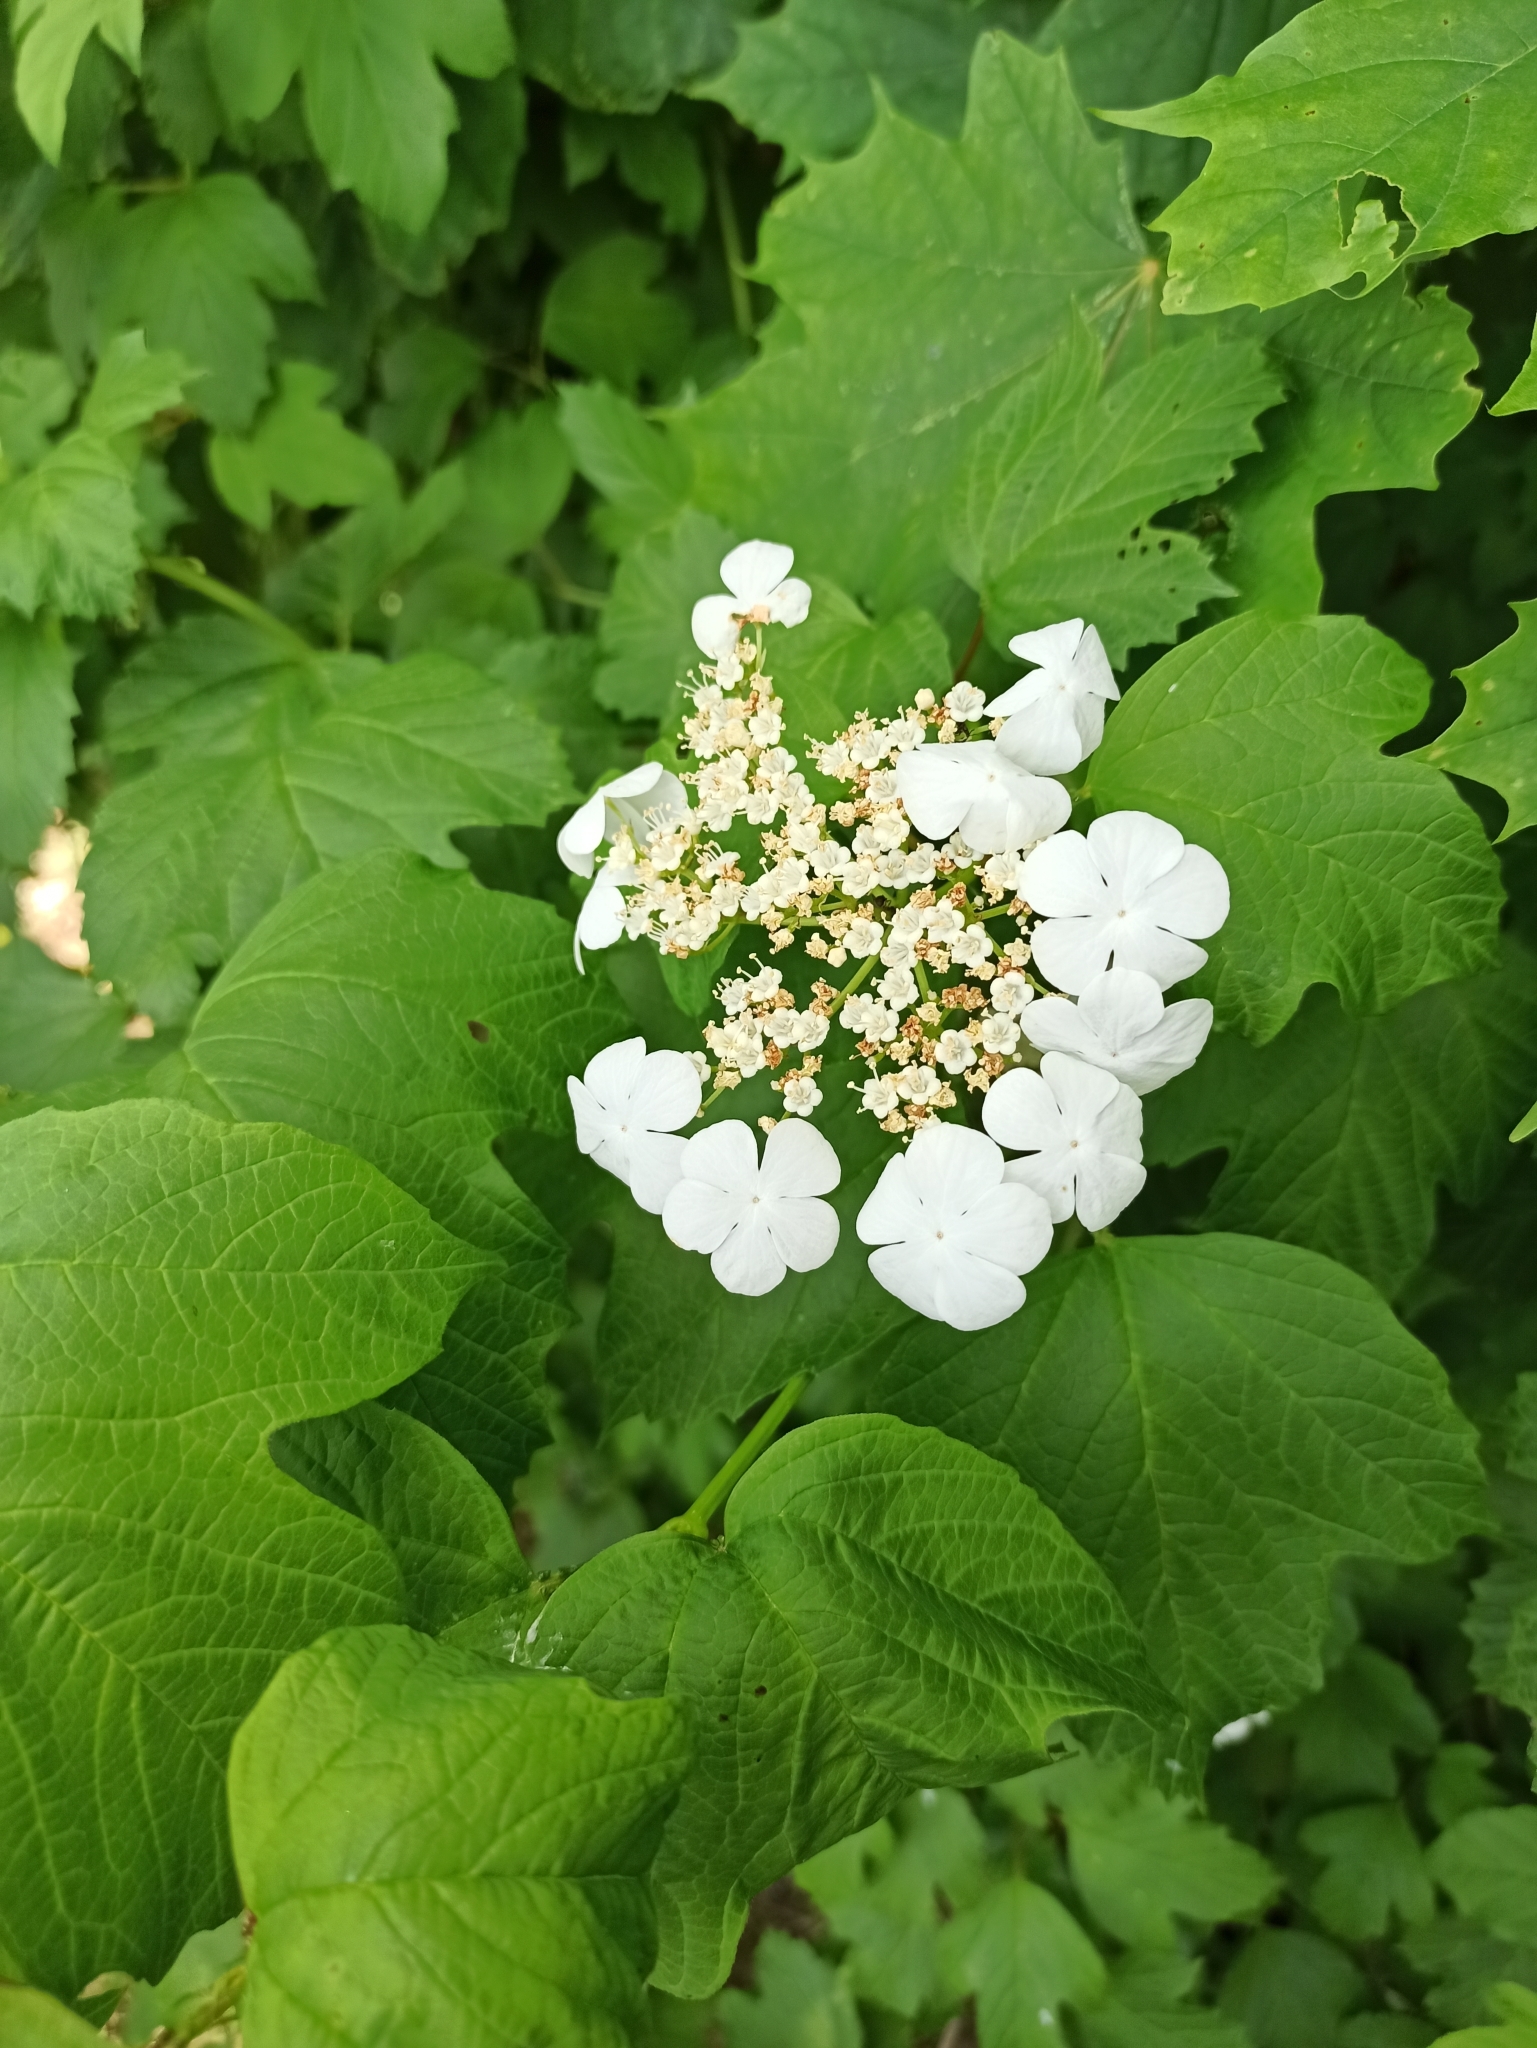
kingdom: Plantae
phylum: Tracheophyta
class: Magnoliopsida
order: Dipsacales
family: Viburnaceae
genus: Viburnum
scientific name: Viburnum opulus
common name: Guelder-rose
